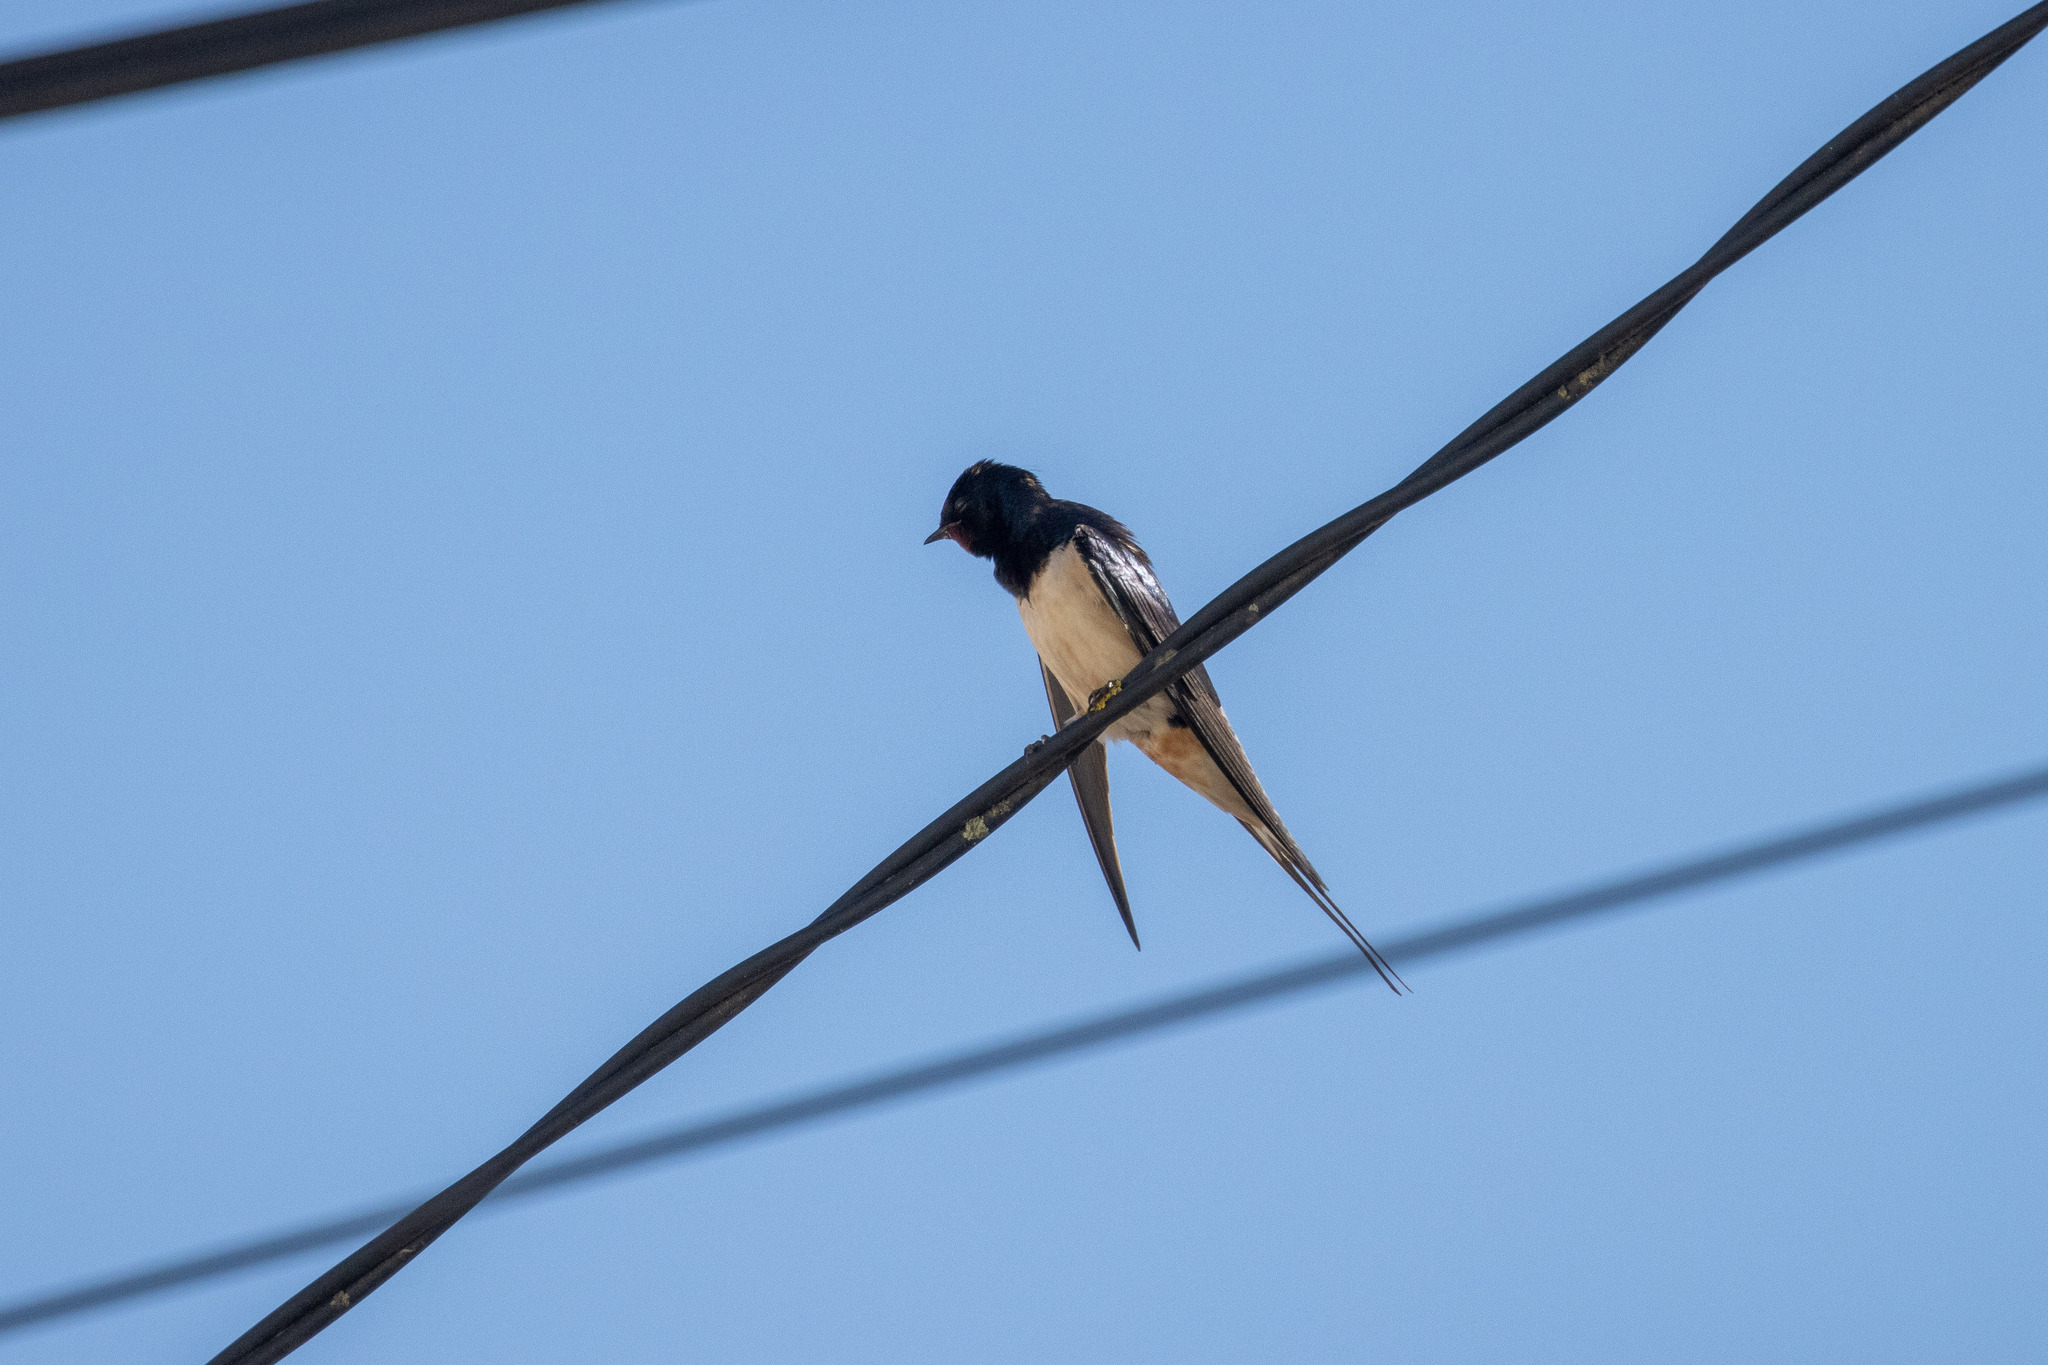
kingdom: Animalia
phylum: Chordata
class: Aves
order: Passeriformes
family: Hirundinidae
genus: Hirundo
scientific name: Hirundo rustica
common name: Barn swallow
